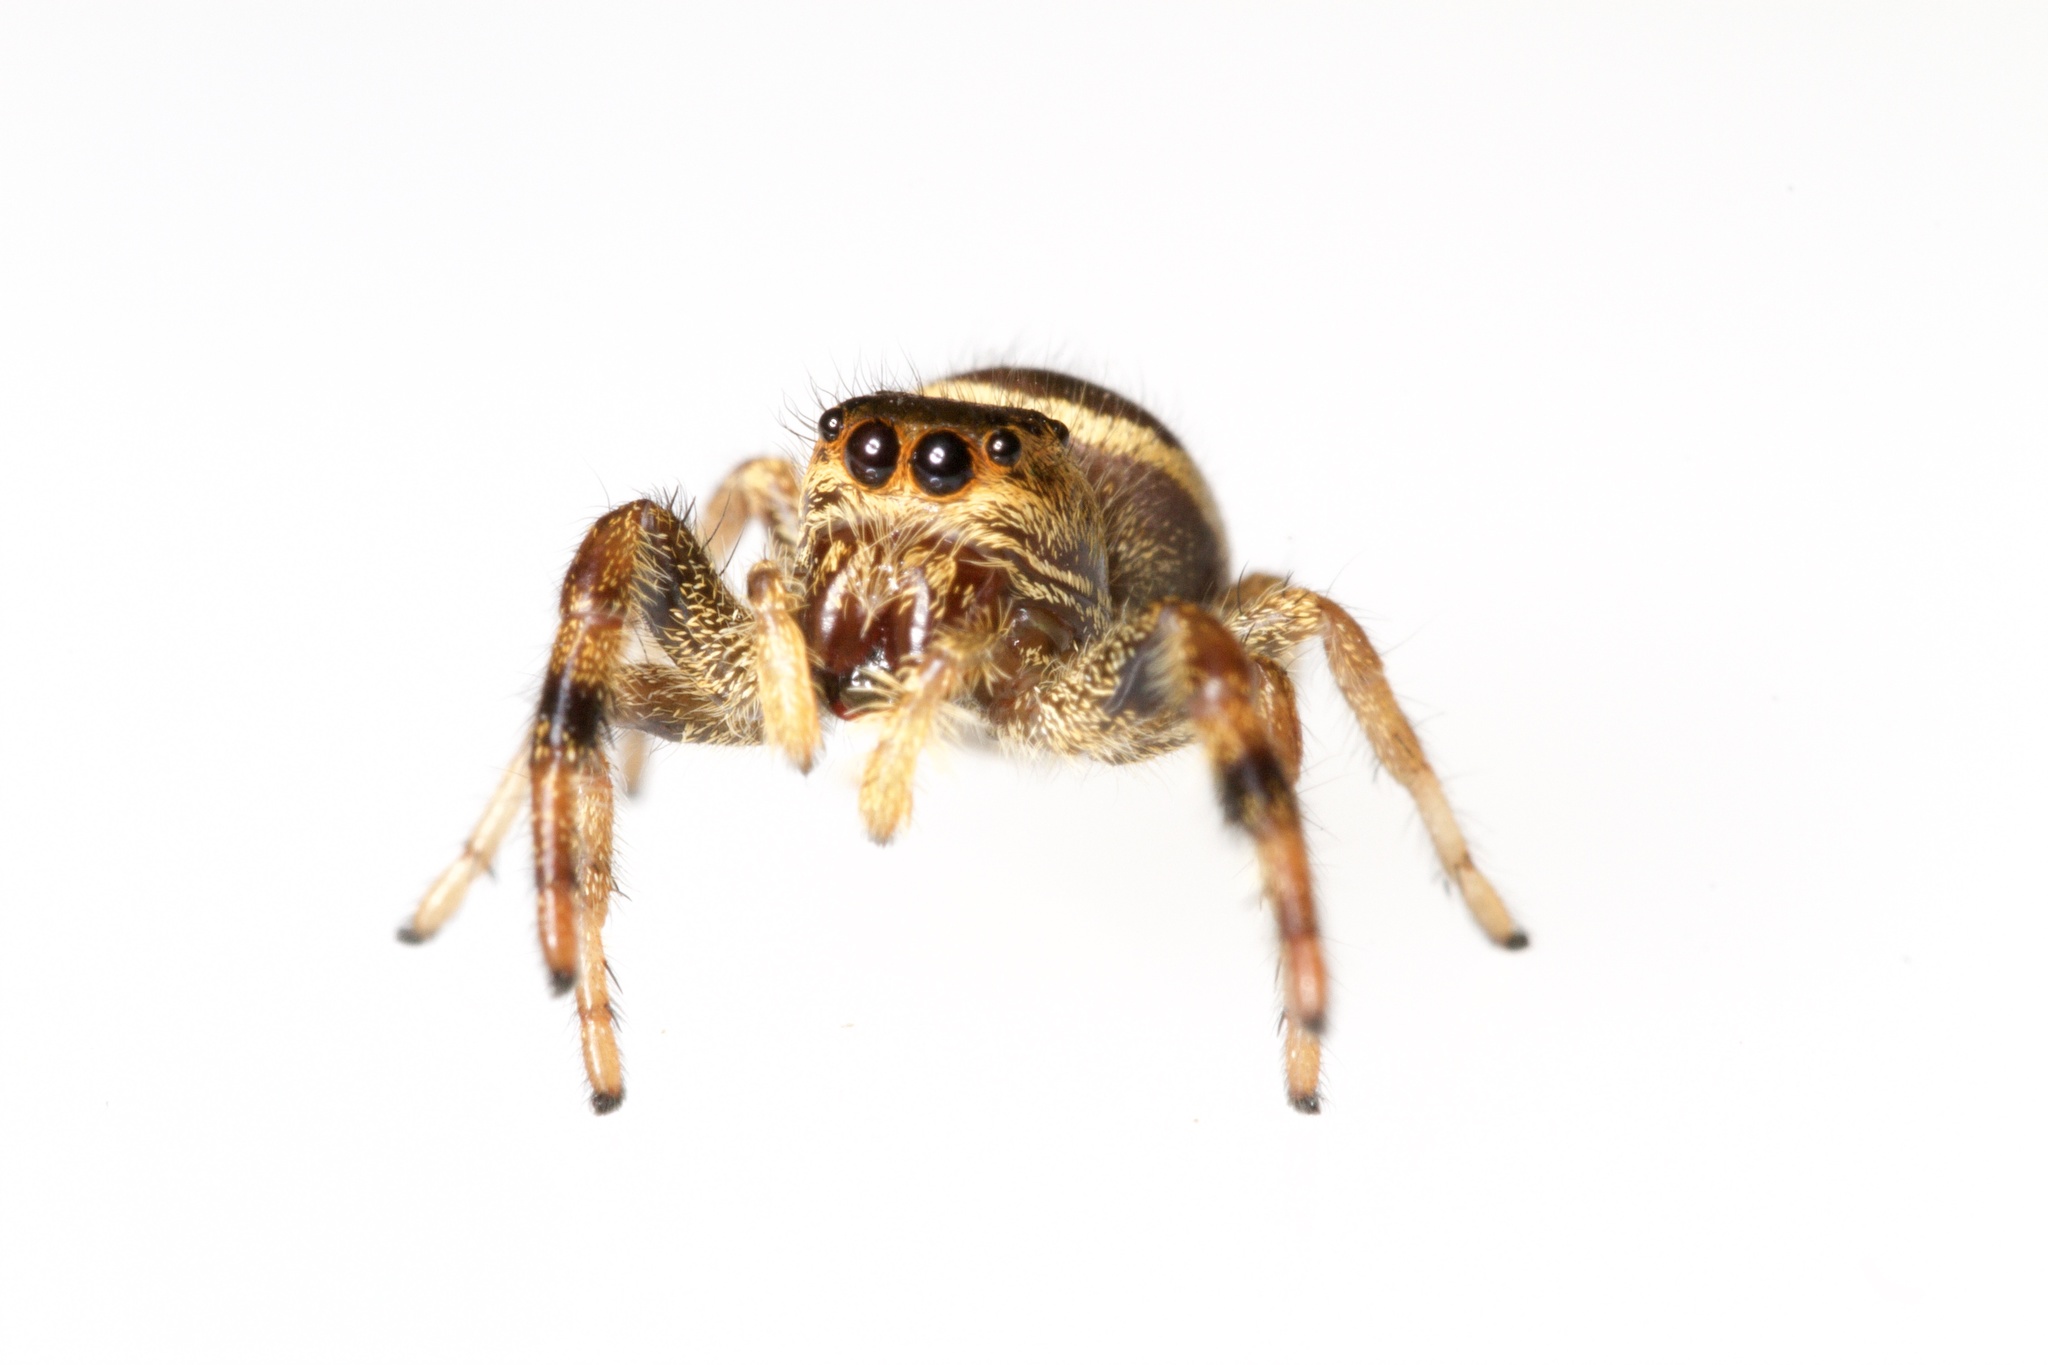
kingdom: Animalia
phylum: Arthropoda
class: Arachnida
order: Araneae
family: Salticidae
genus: Paraphidippus
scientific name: Paraphidippus aurantius
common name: Jumping spiders
